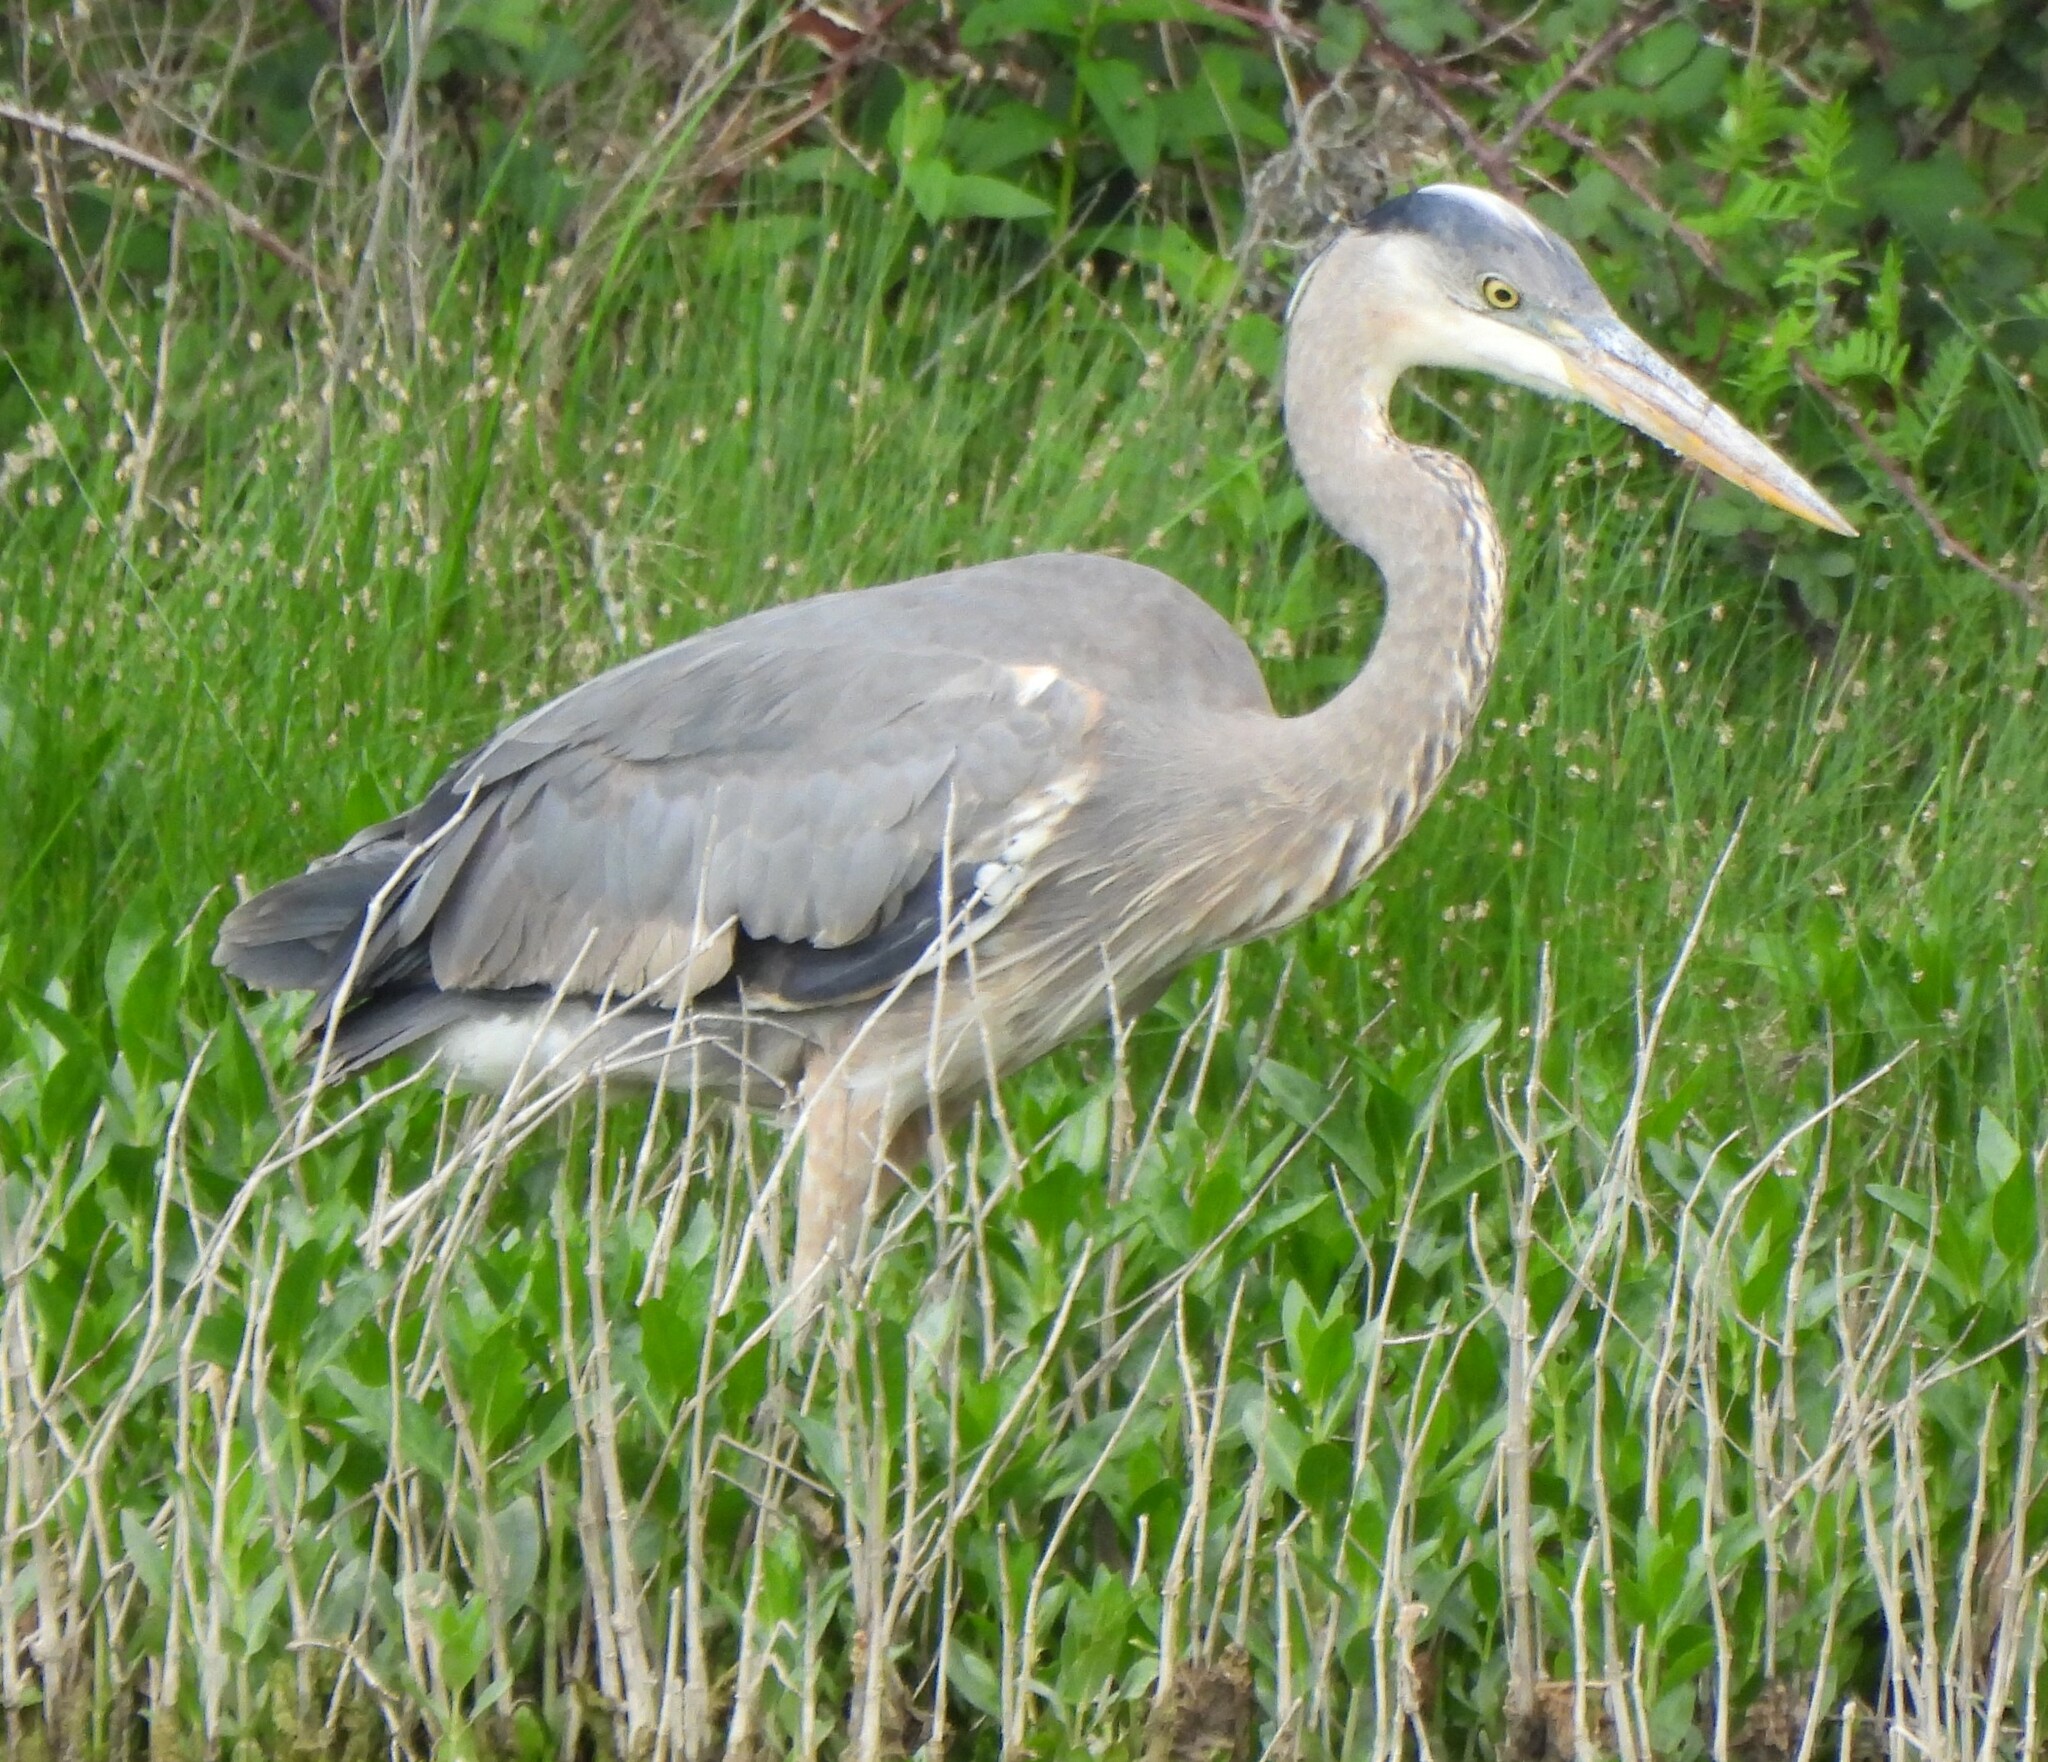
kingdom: Animalia
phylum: Chordata
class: Aves
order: Pelecaniformes
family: Ardeidae
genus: Ardea
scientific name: Ardea herodias
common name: Great blue heron
